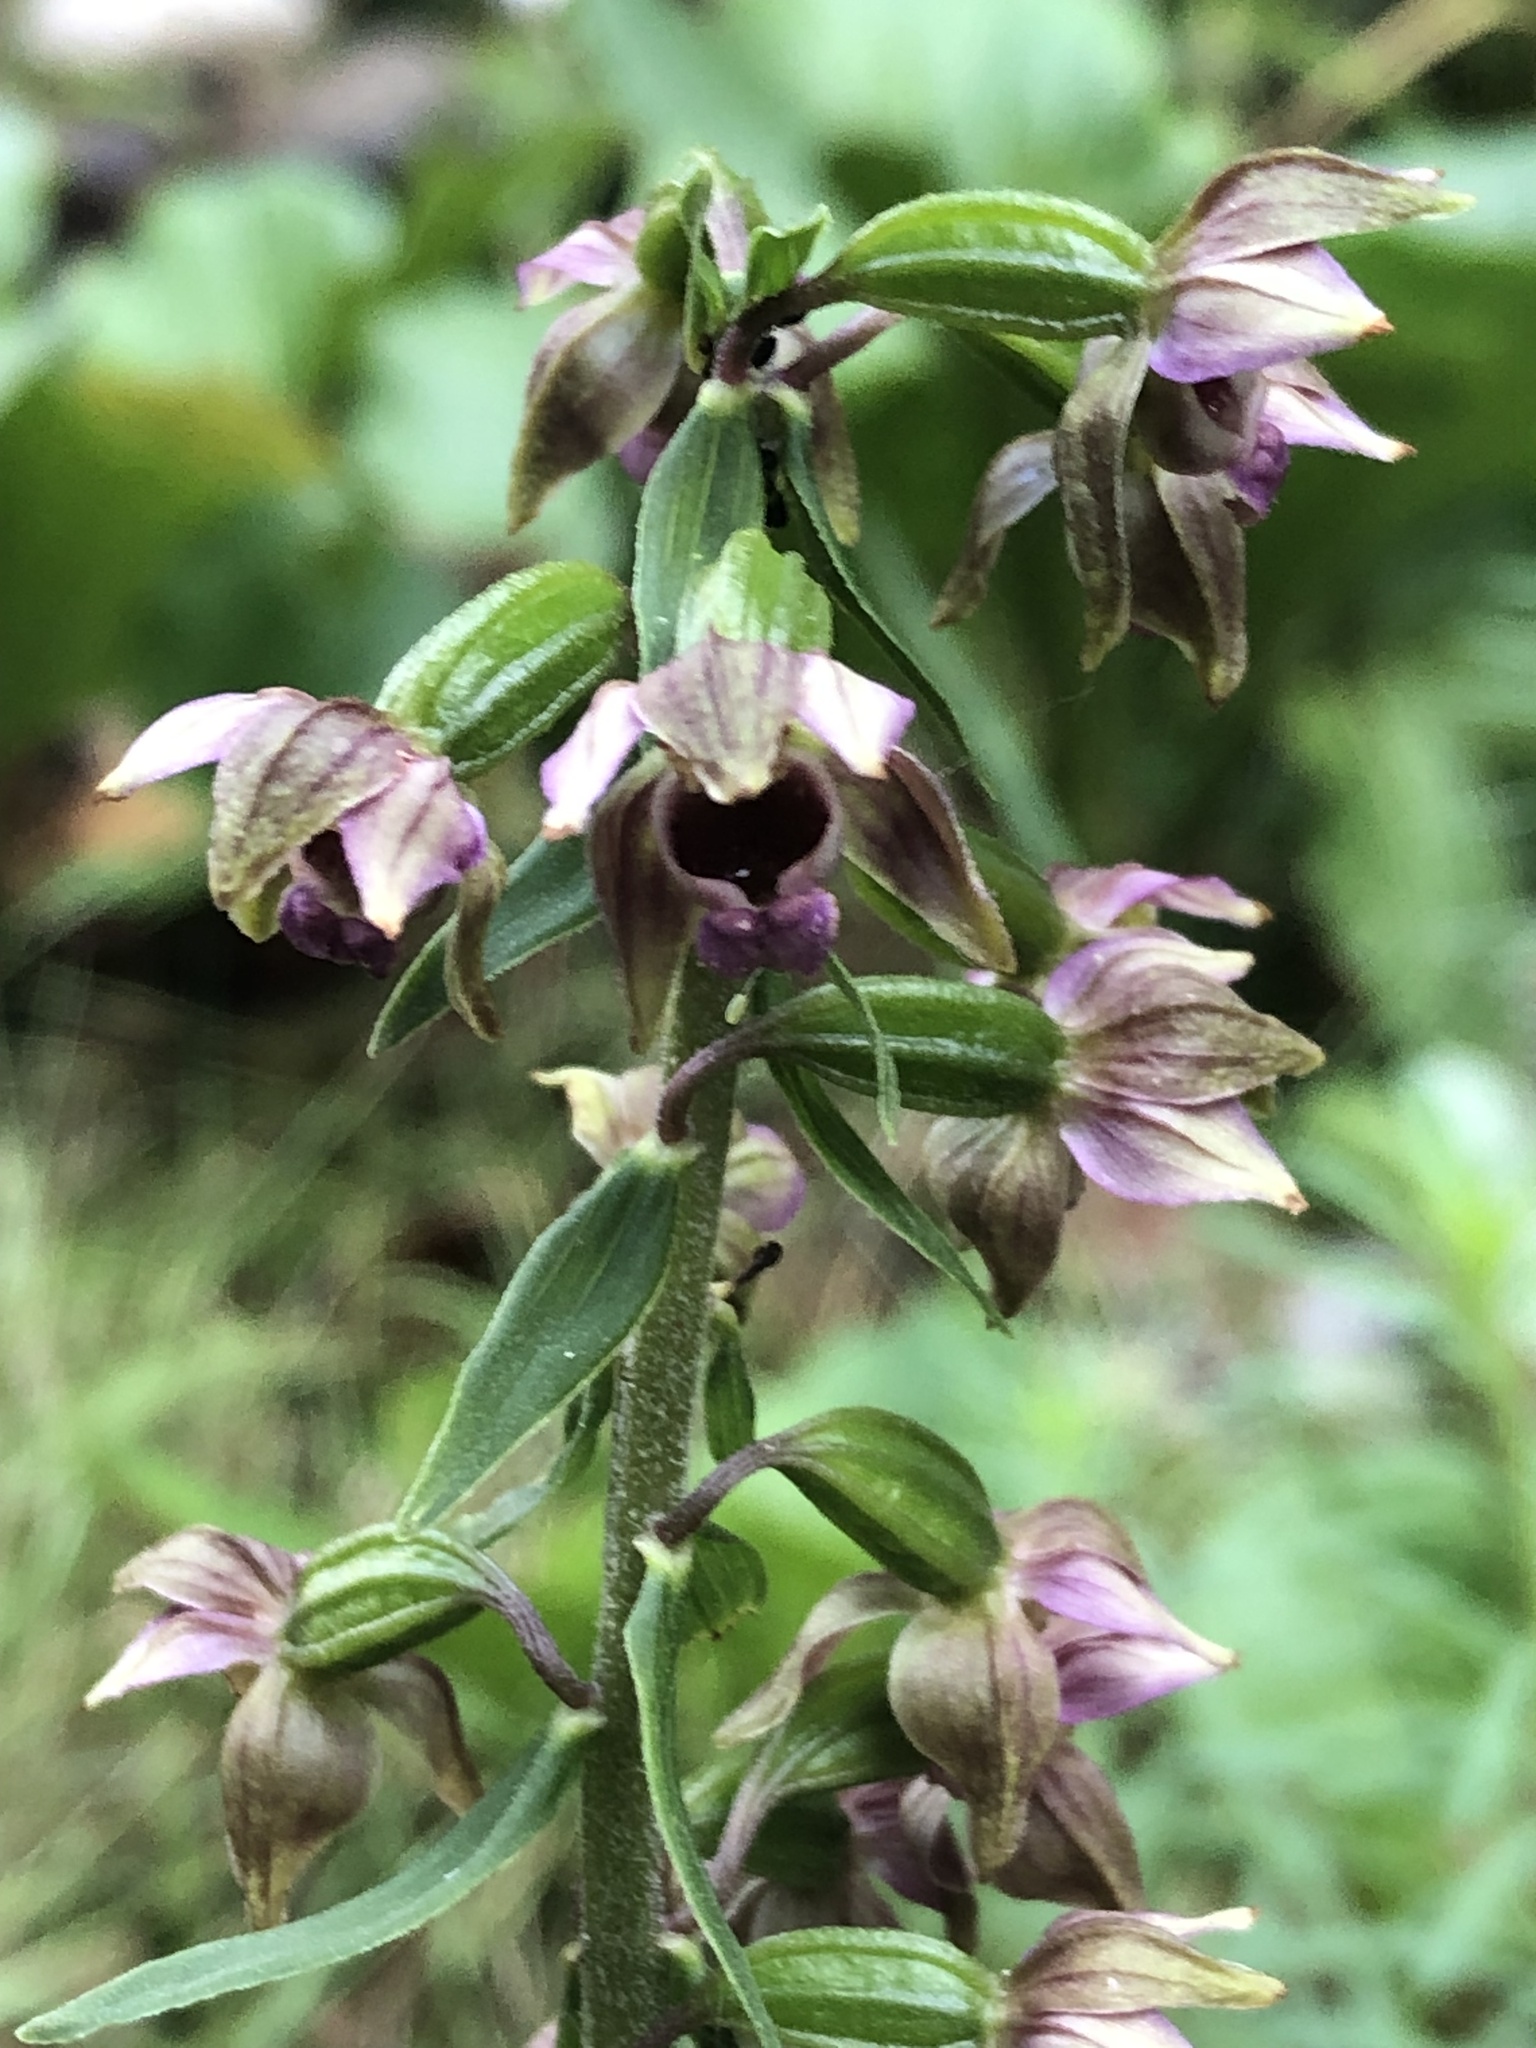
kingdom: Plantae
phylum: Tracheophyta
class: Liliopsida
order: Asparagales
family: Orchidaceae
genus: Epipactis
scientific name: Epipactis helleborine
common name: Broad-leaved helleborine
